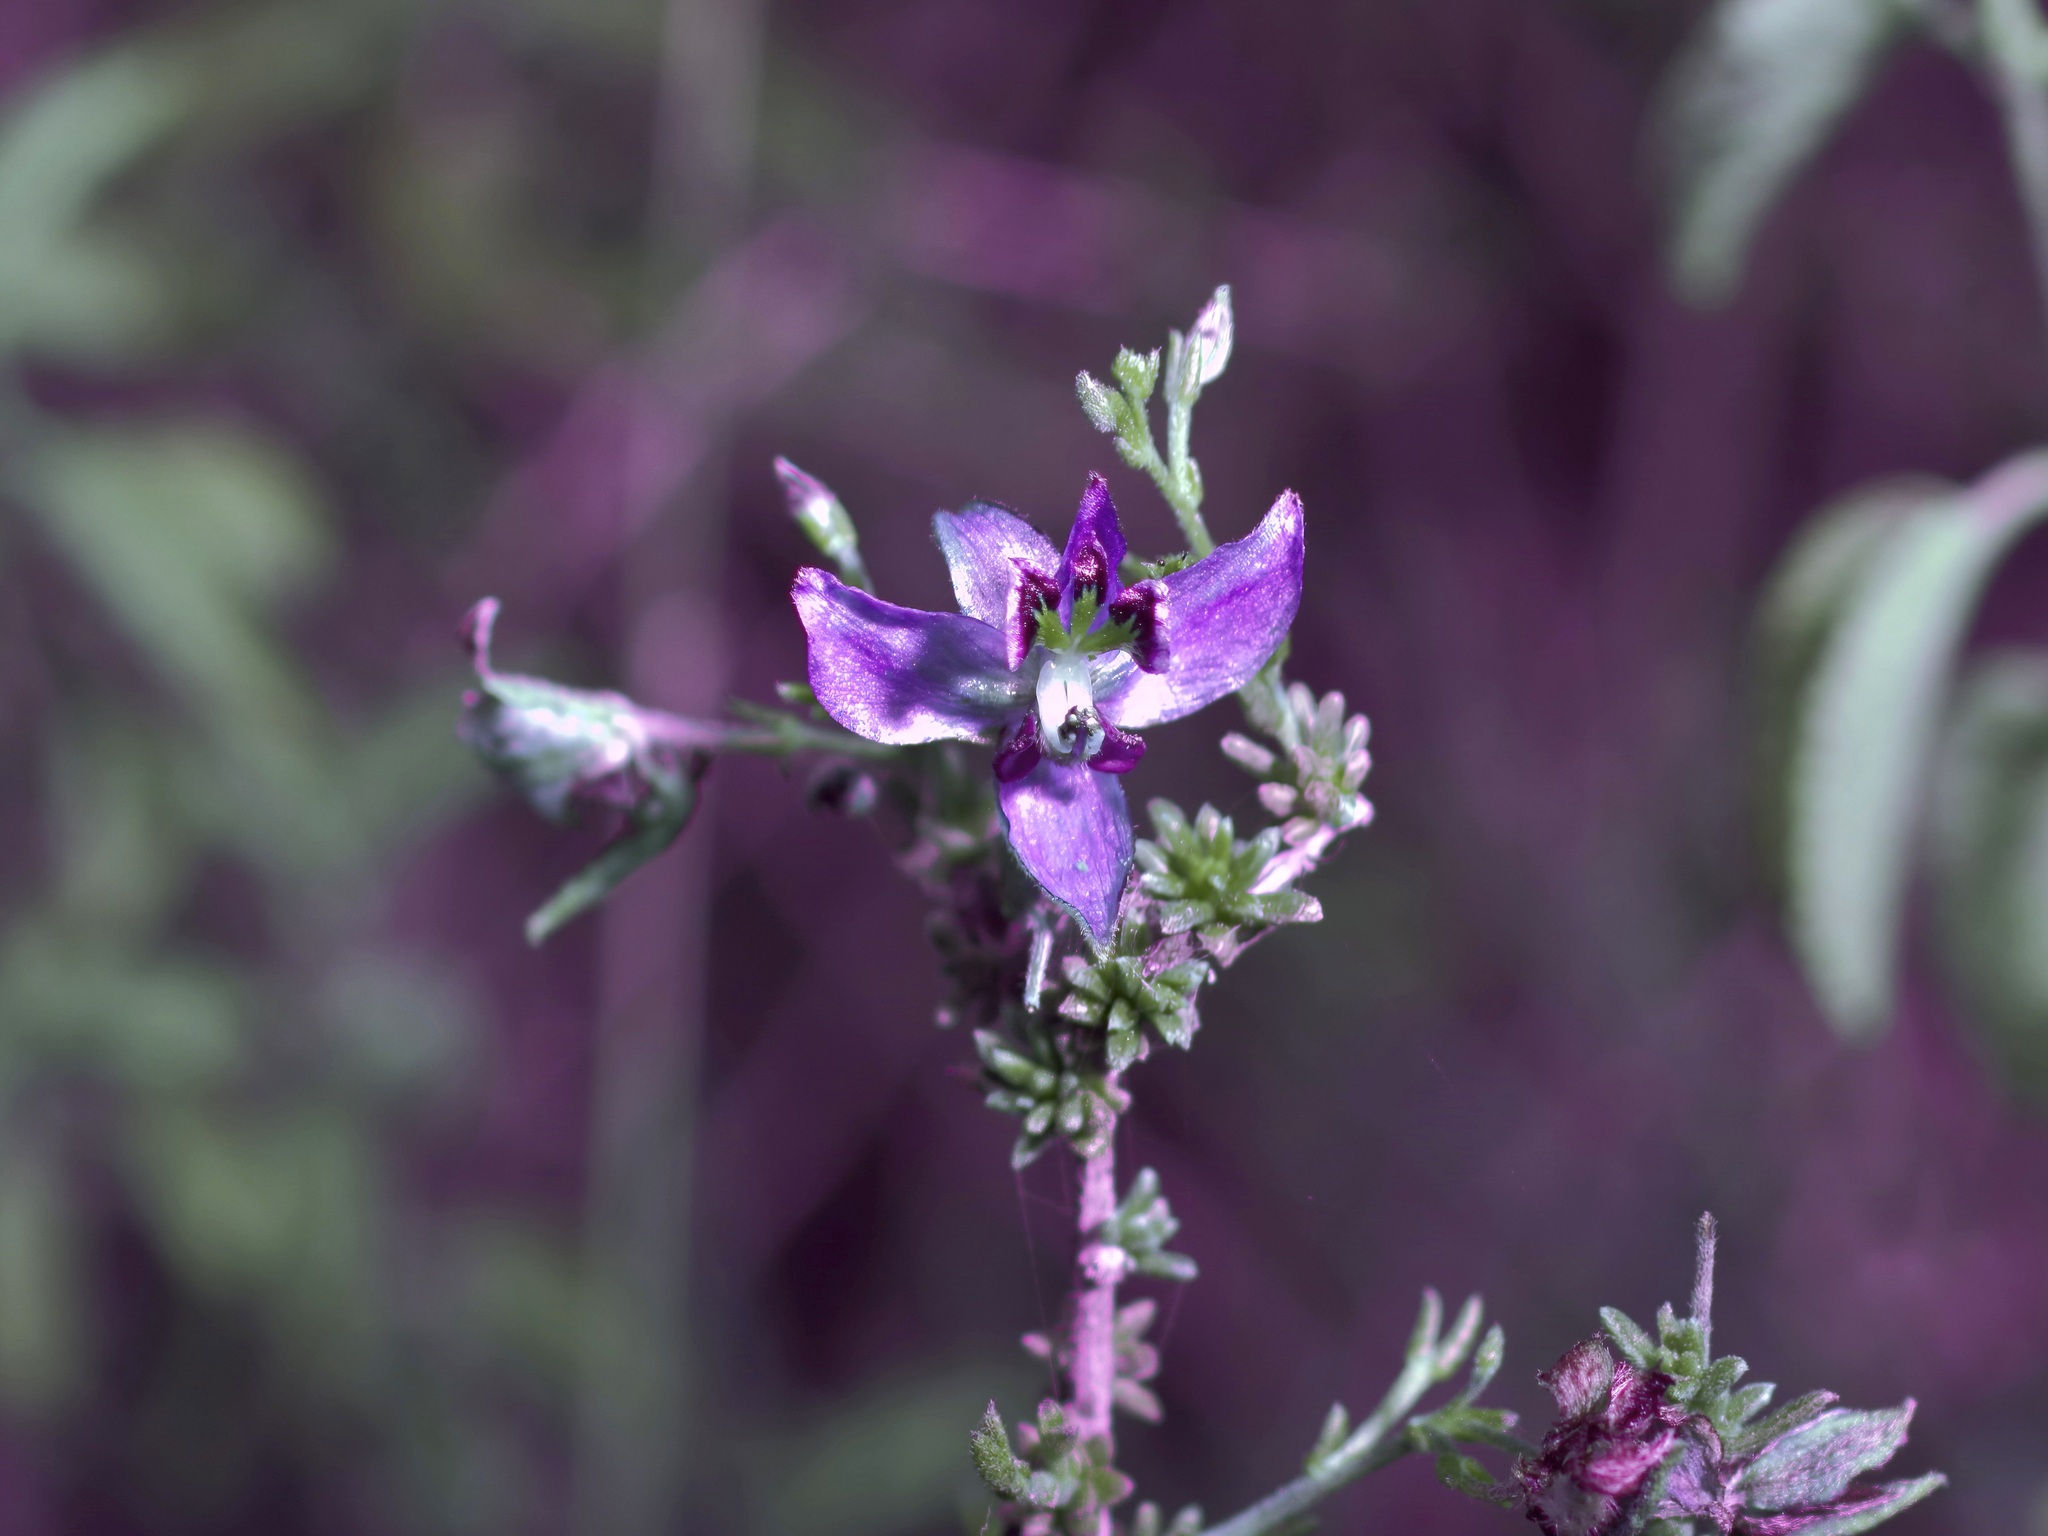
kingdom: Plantae
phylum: Tracheophyta
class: Magnoliopsida
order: Zygophyllales
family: Krameriaceae
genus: Krameria
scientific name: Krameria ramosissima
